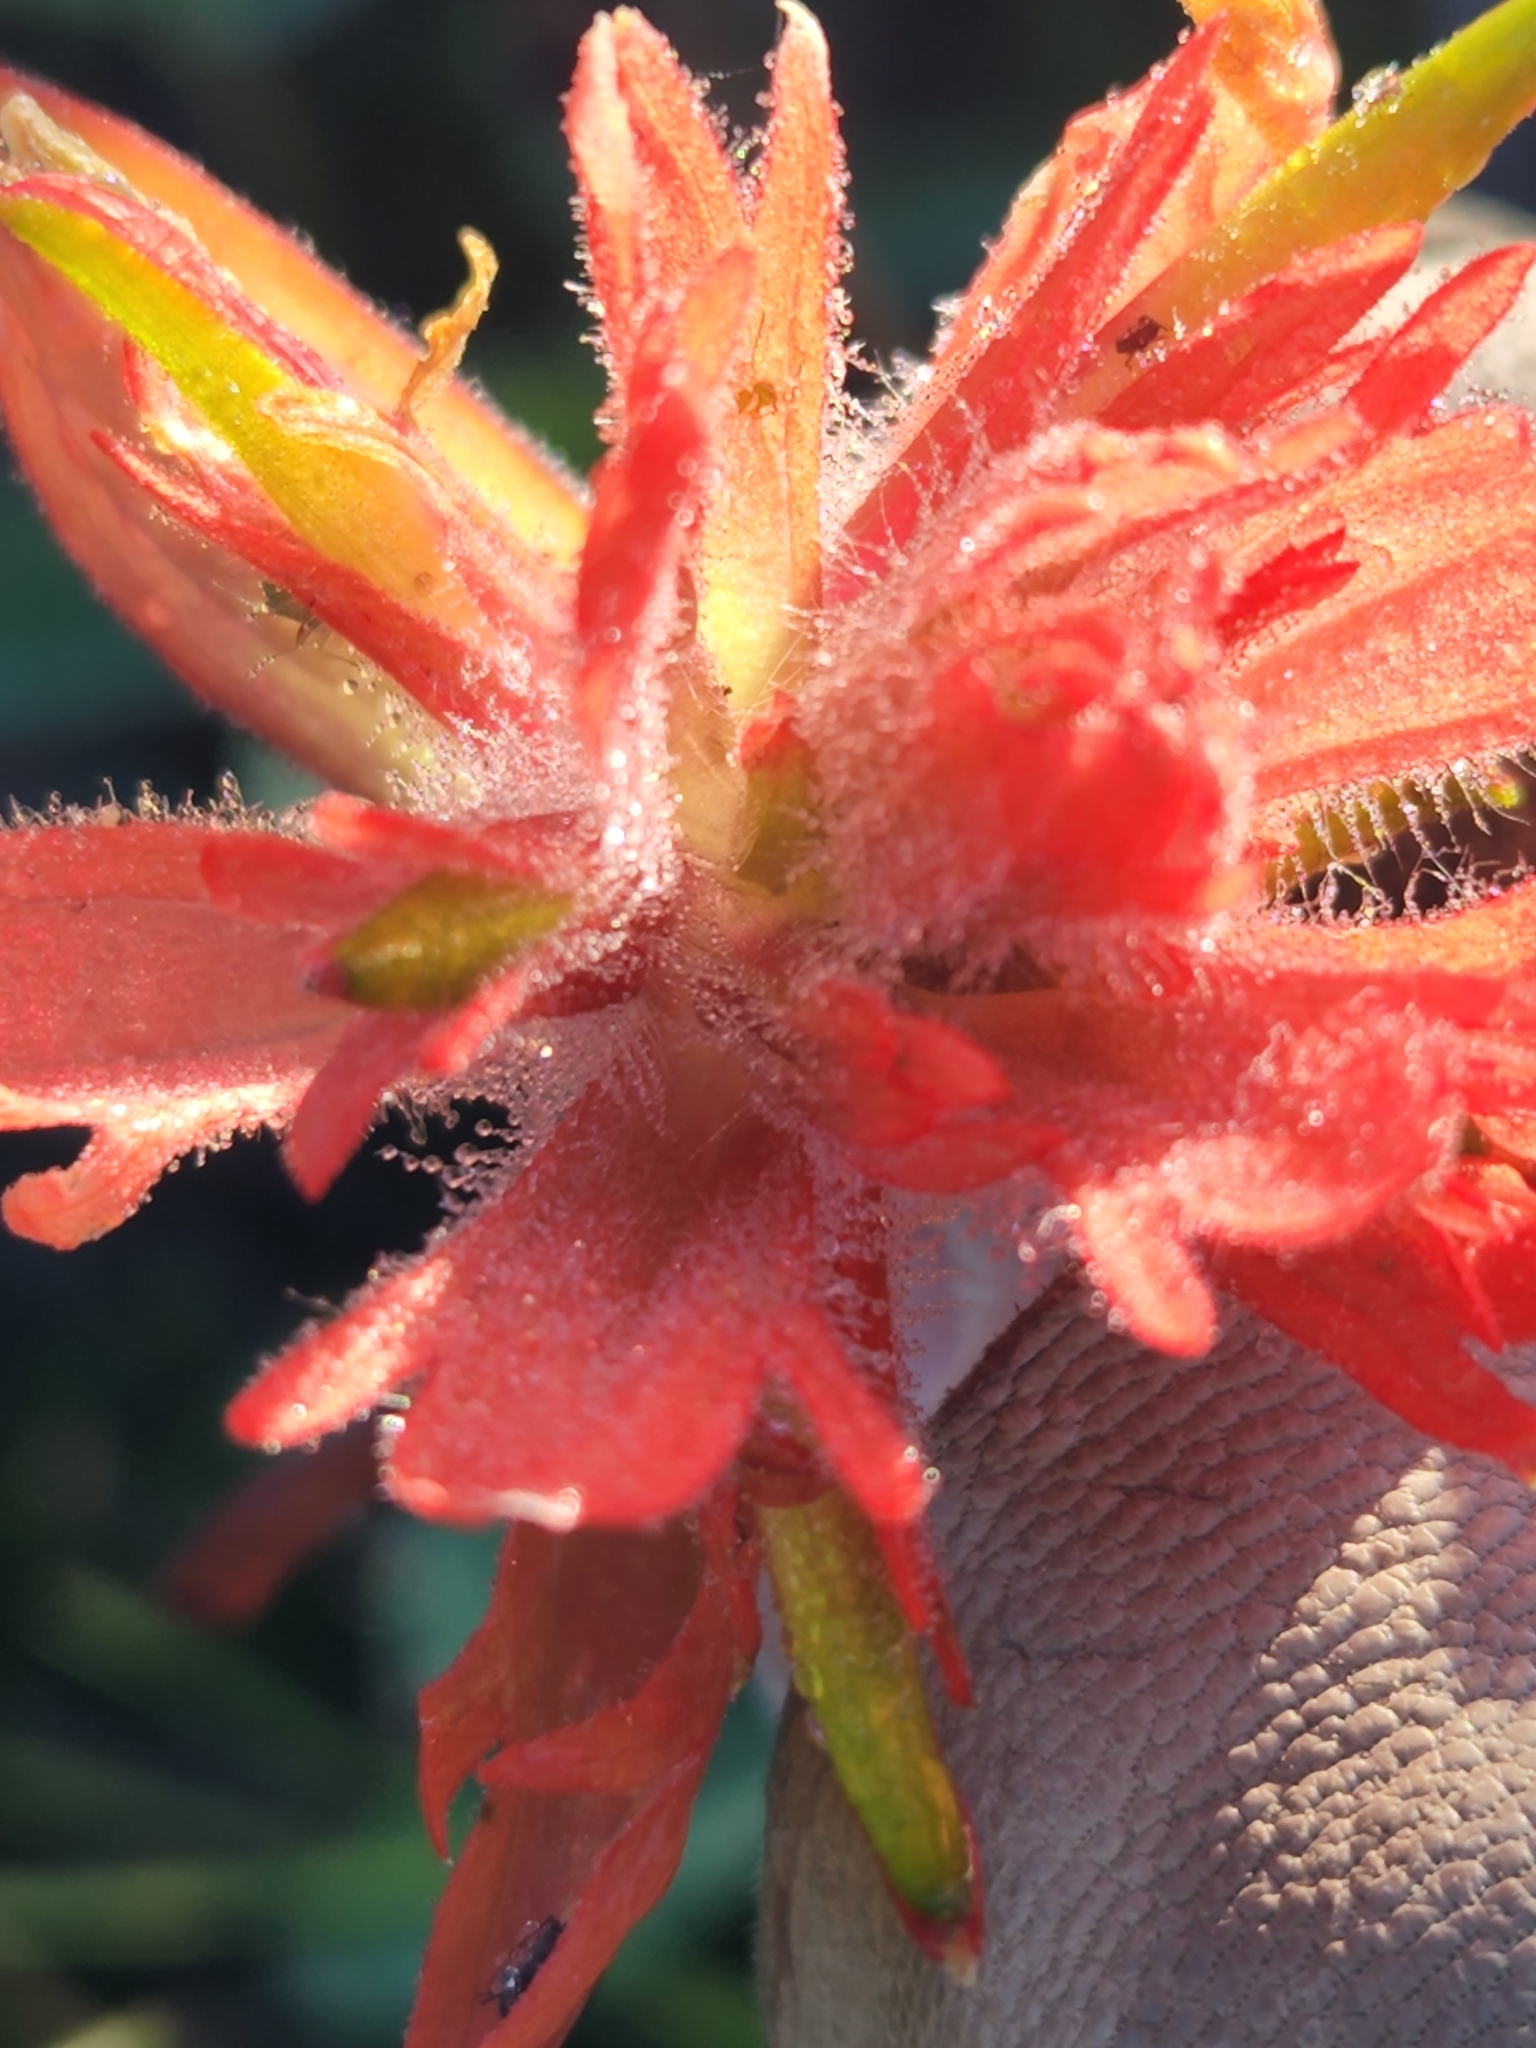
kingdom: Plantae
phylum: Tracheophyta
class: Magnoliopsida
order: Lamiales
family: Orobanchaceae
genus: Castilleja
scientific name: Castilleja miniata
